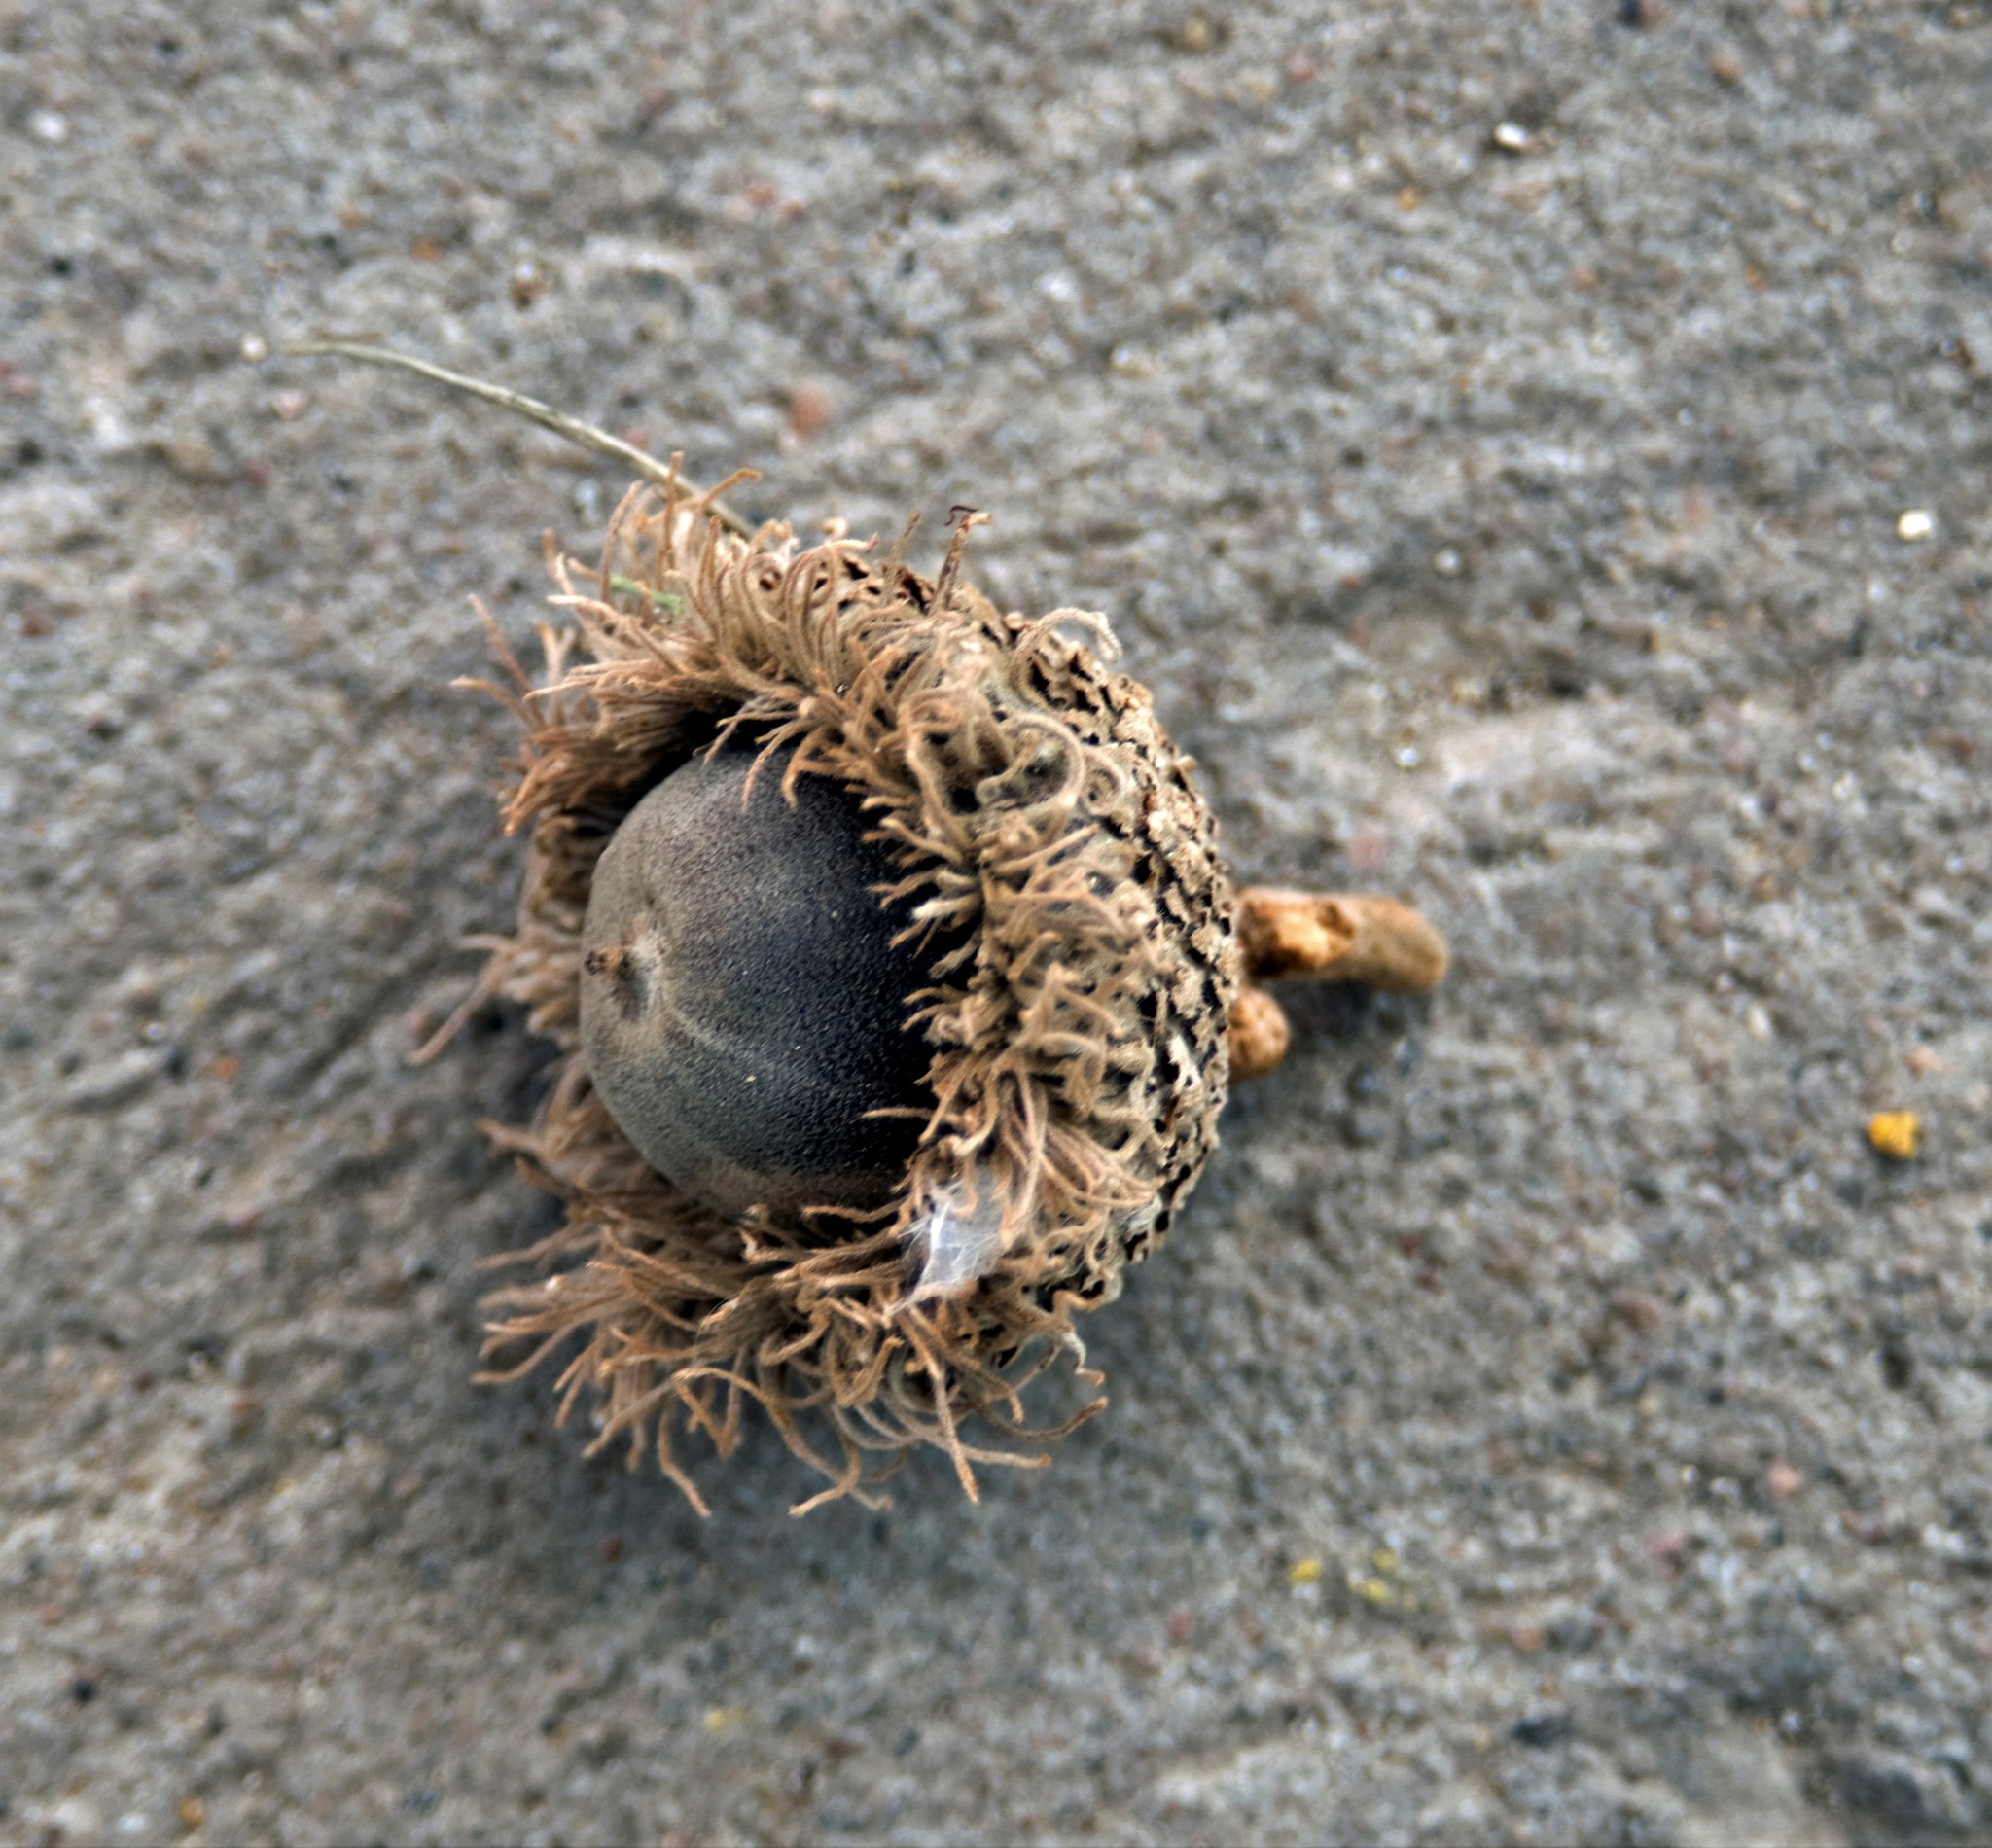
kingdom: Plantae
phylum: Tracheophyta
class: Magnoliopsida
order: Fagales
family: Fagaceae
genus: Quercus
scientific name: Quercus macrocarpa
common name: Bur oak
